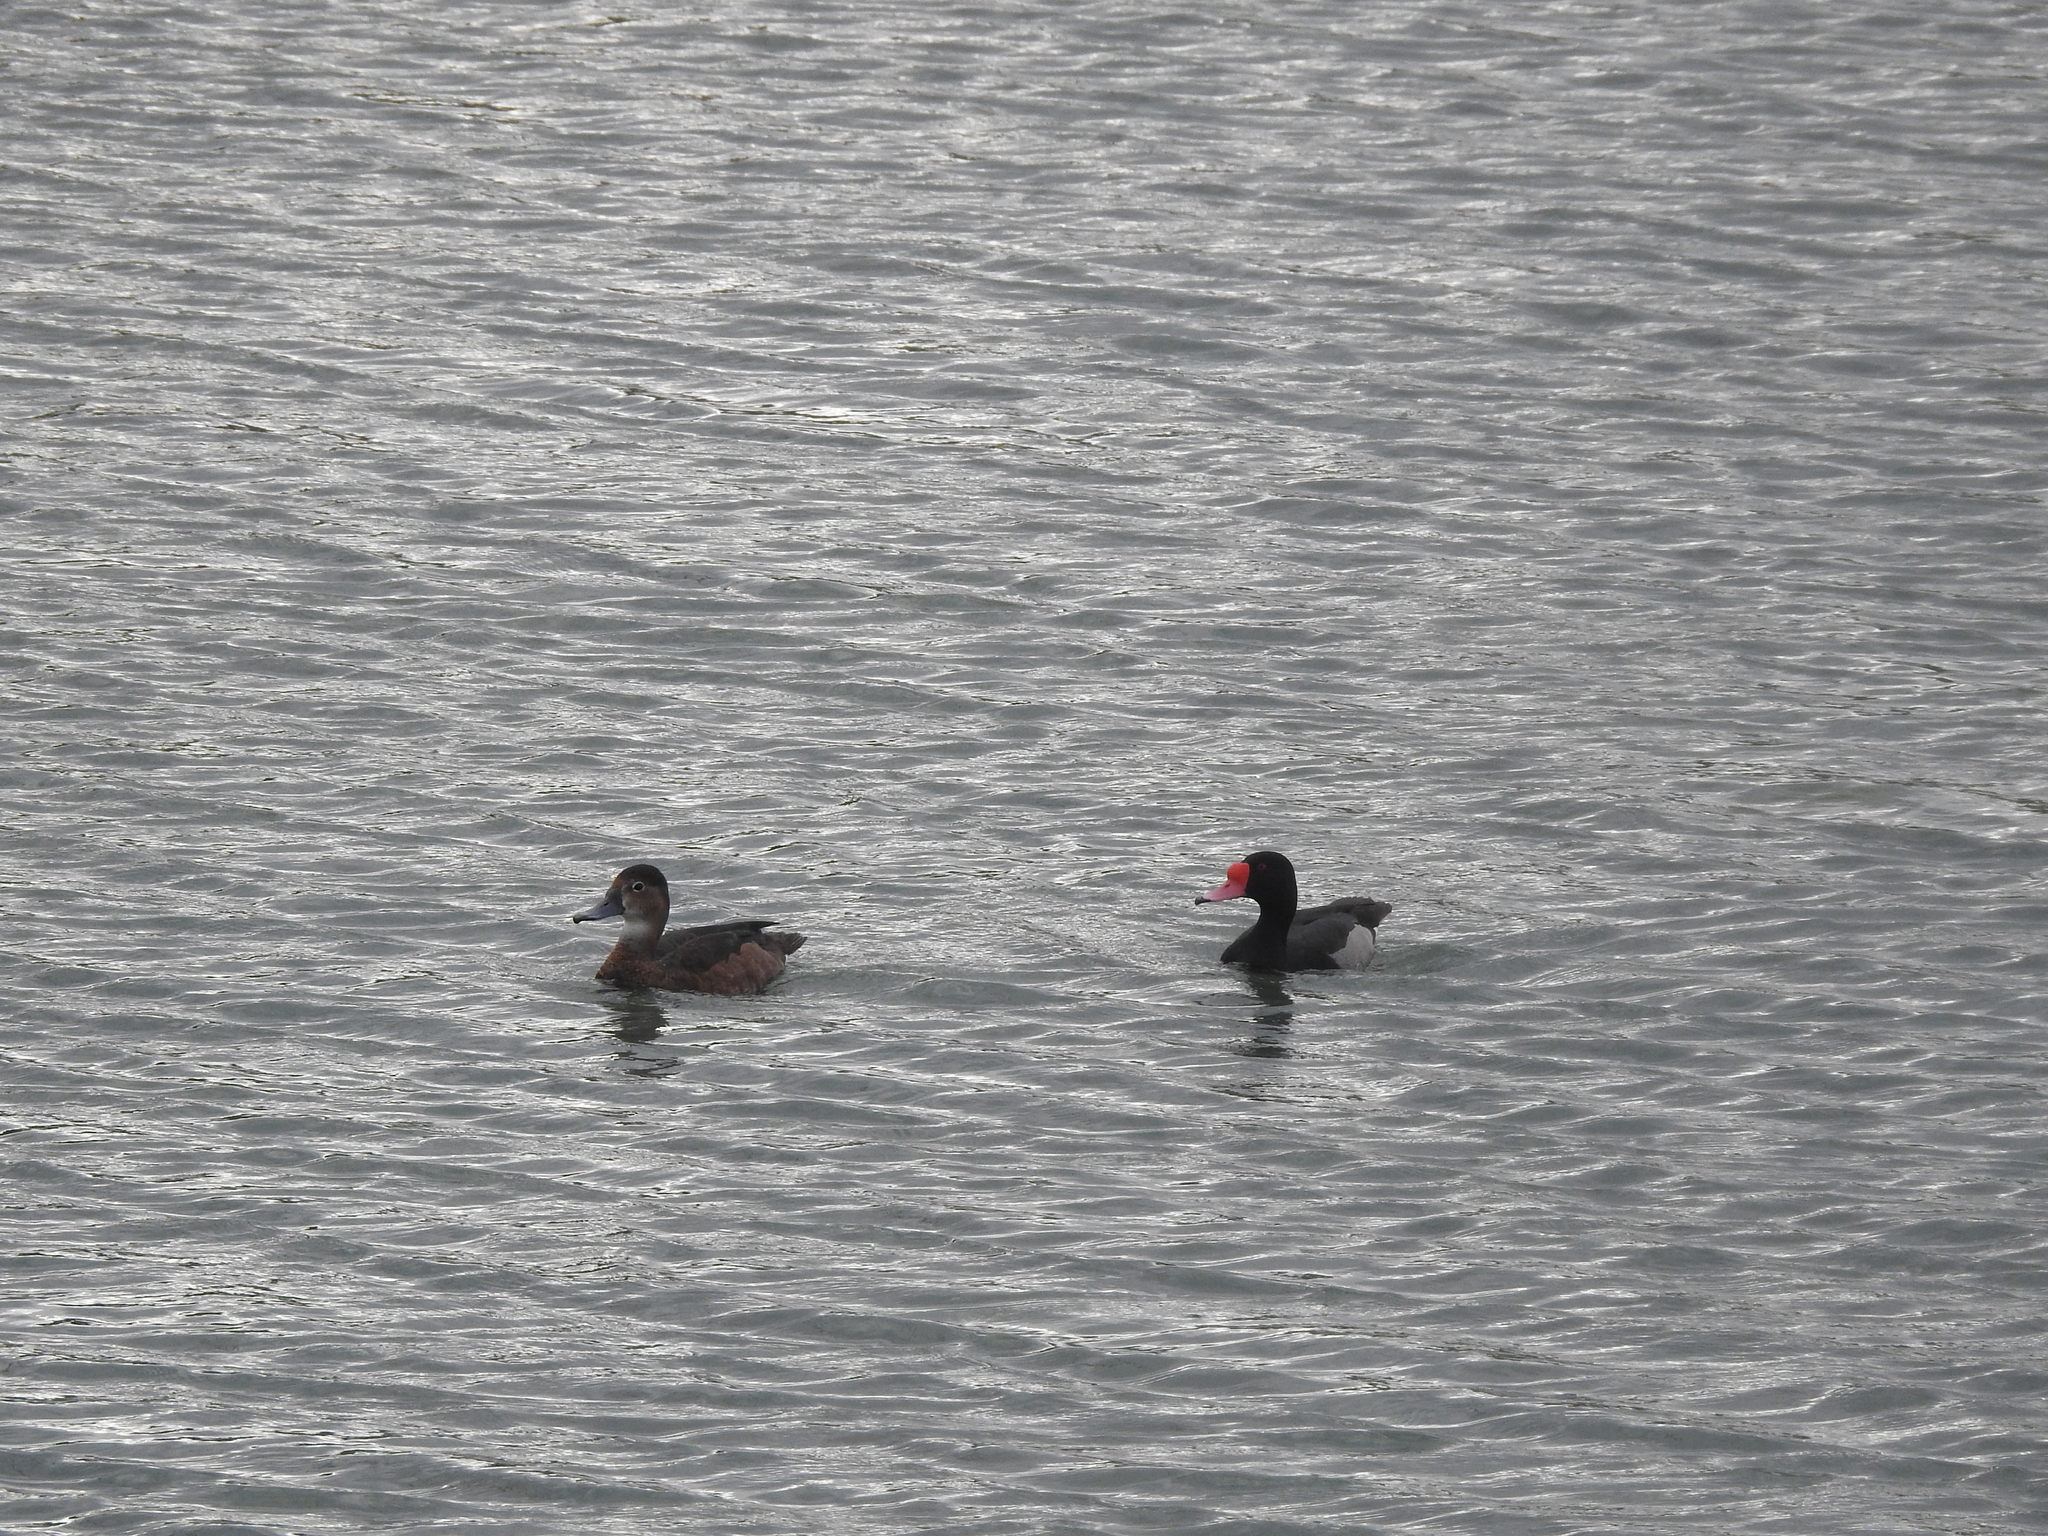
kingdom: Animalia
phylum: Chordata
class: Aves
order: Anseriformes
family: Anatidae
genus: Netta
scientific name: Netta peposaca
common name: Rosy-billed pochard
